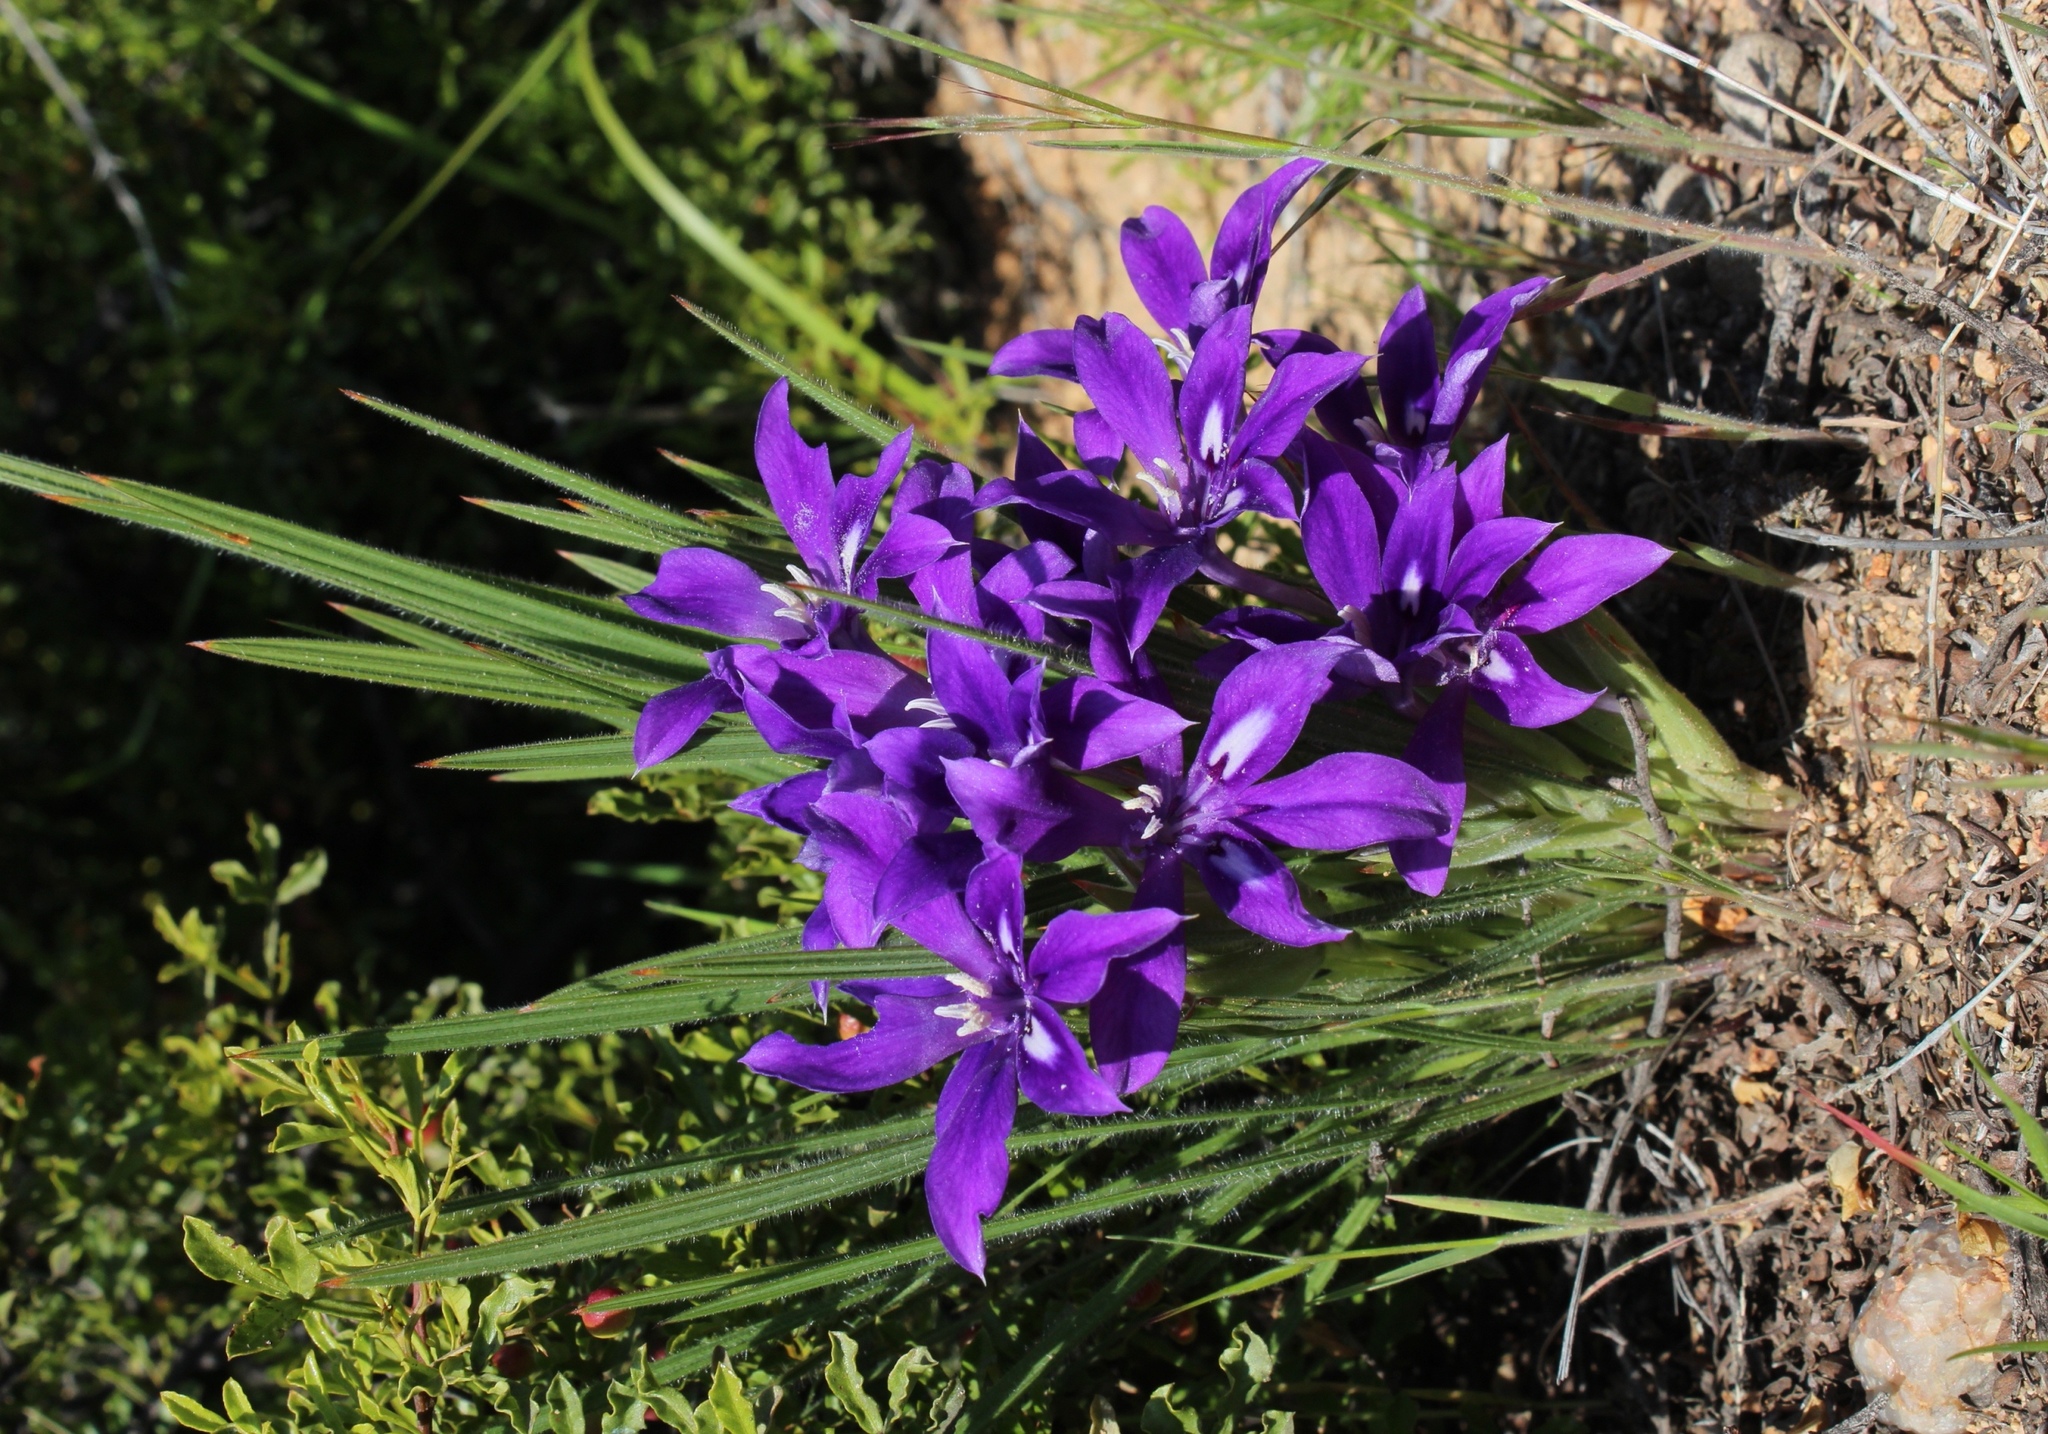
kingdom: Plantae
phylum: Tracheophyta
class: Liliopsida
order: Asparagales
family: Iridaceae
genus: Babiana
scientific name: Babiana curviscapa
